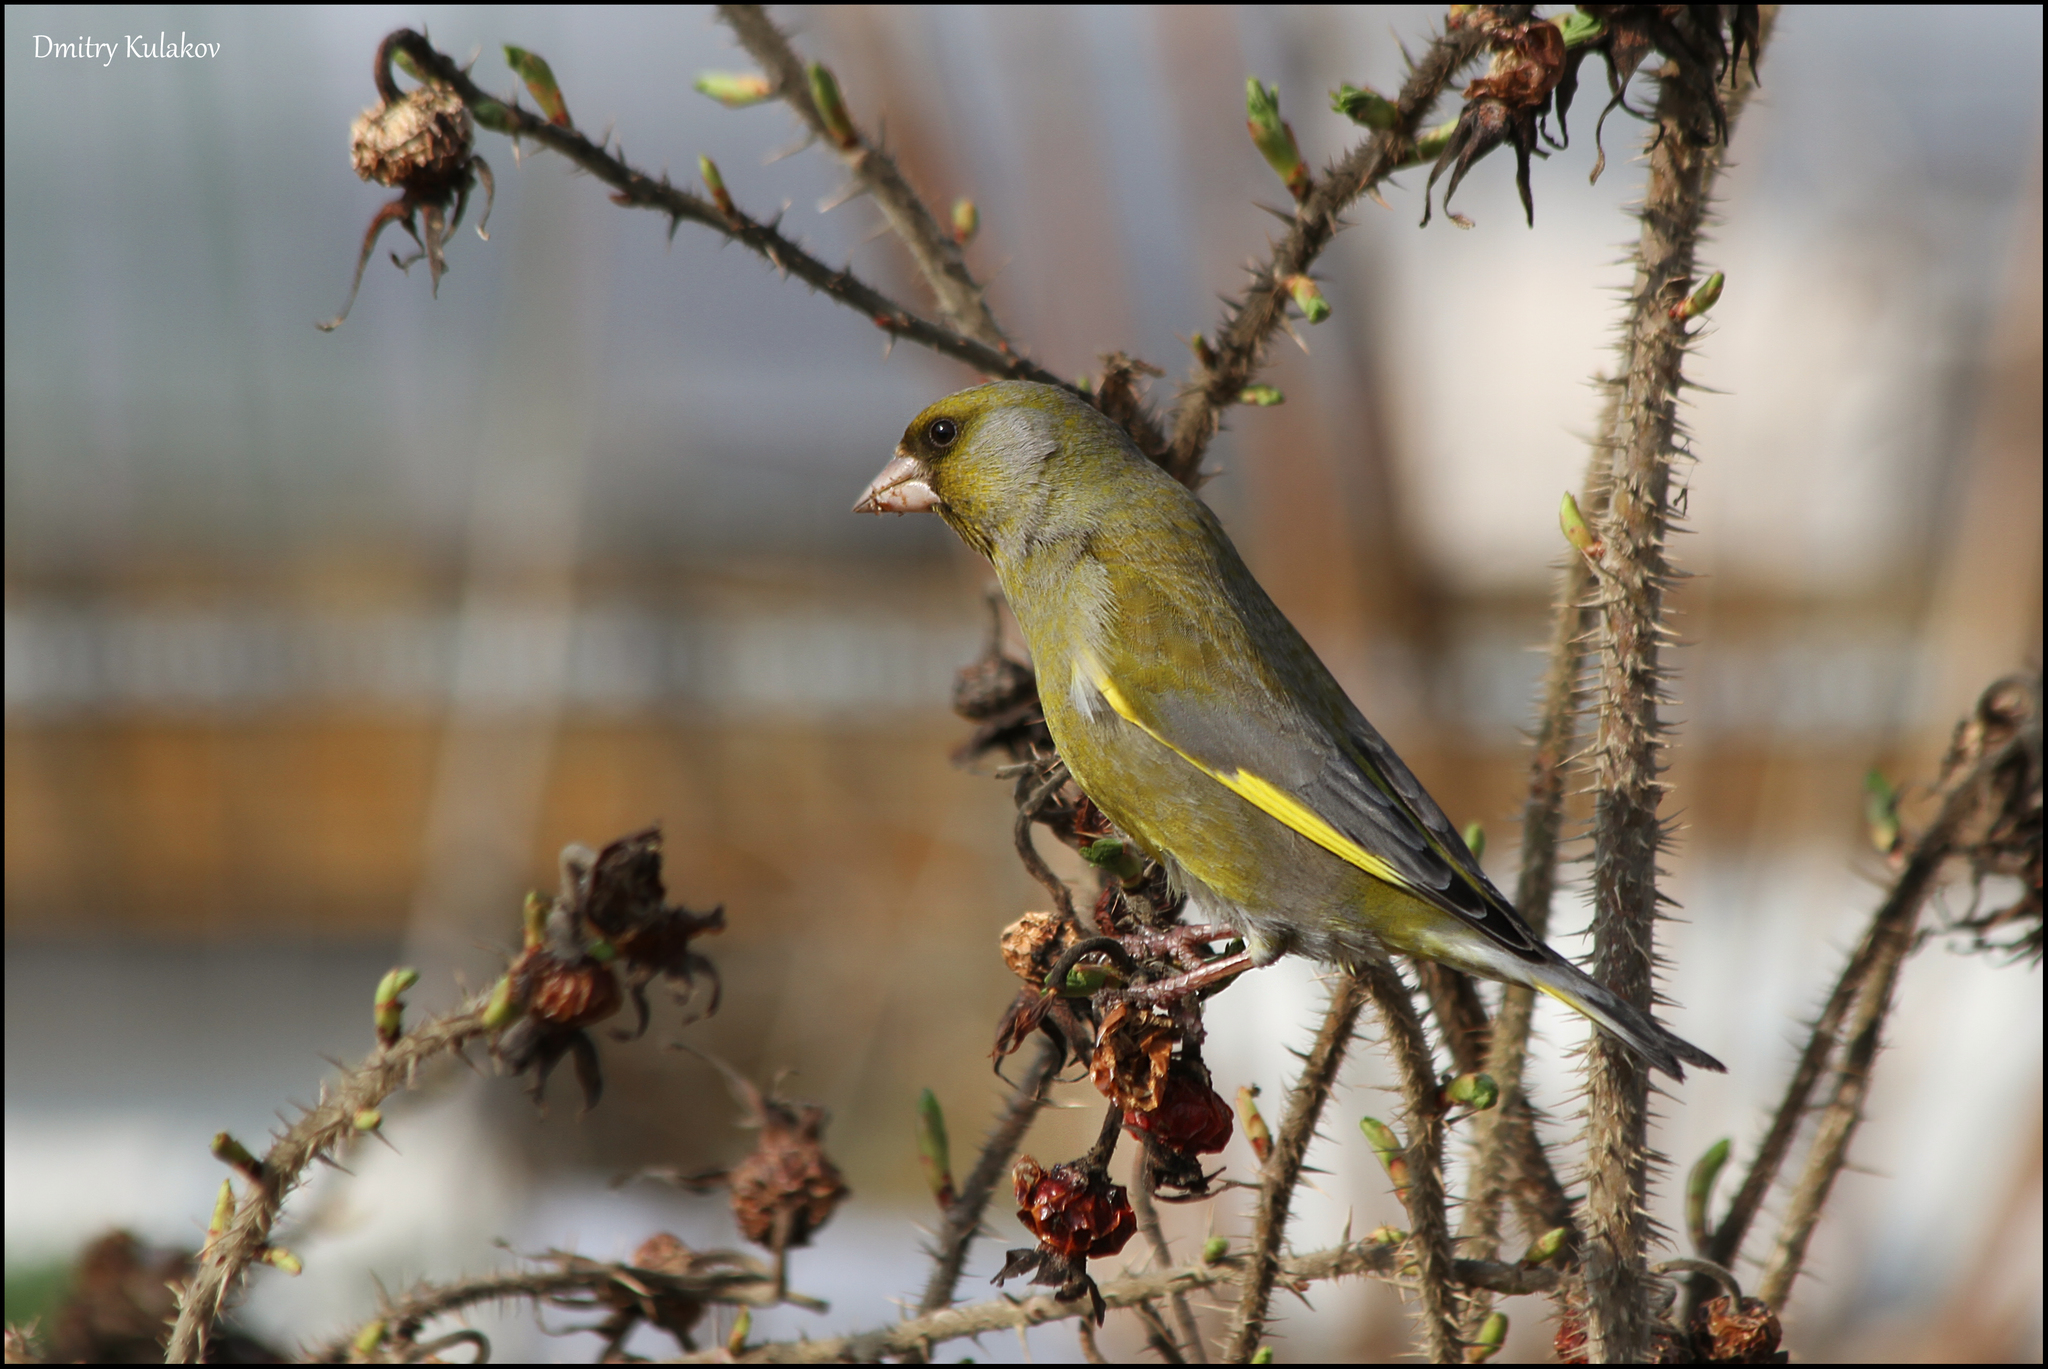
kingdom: Plantae
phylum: Tracheophyta
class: Liliopsida
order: Poales
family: Poaceae
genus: Chloris
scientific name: Chloris chloris
